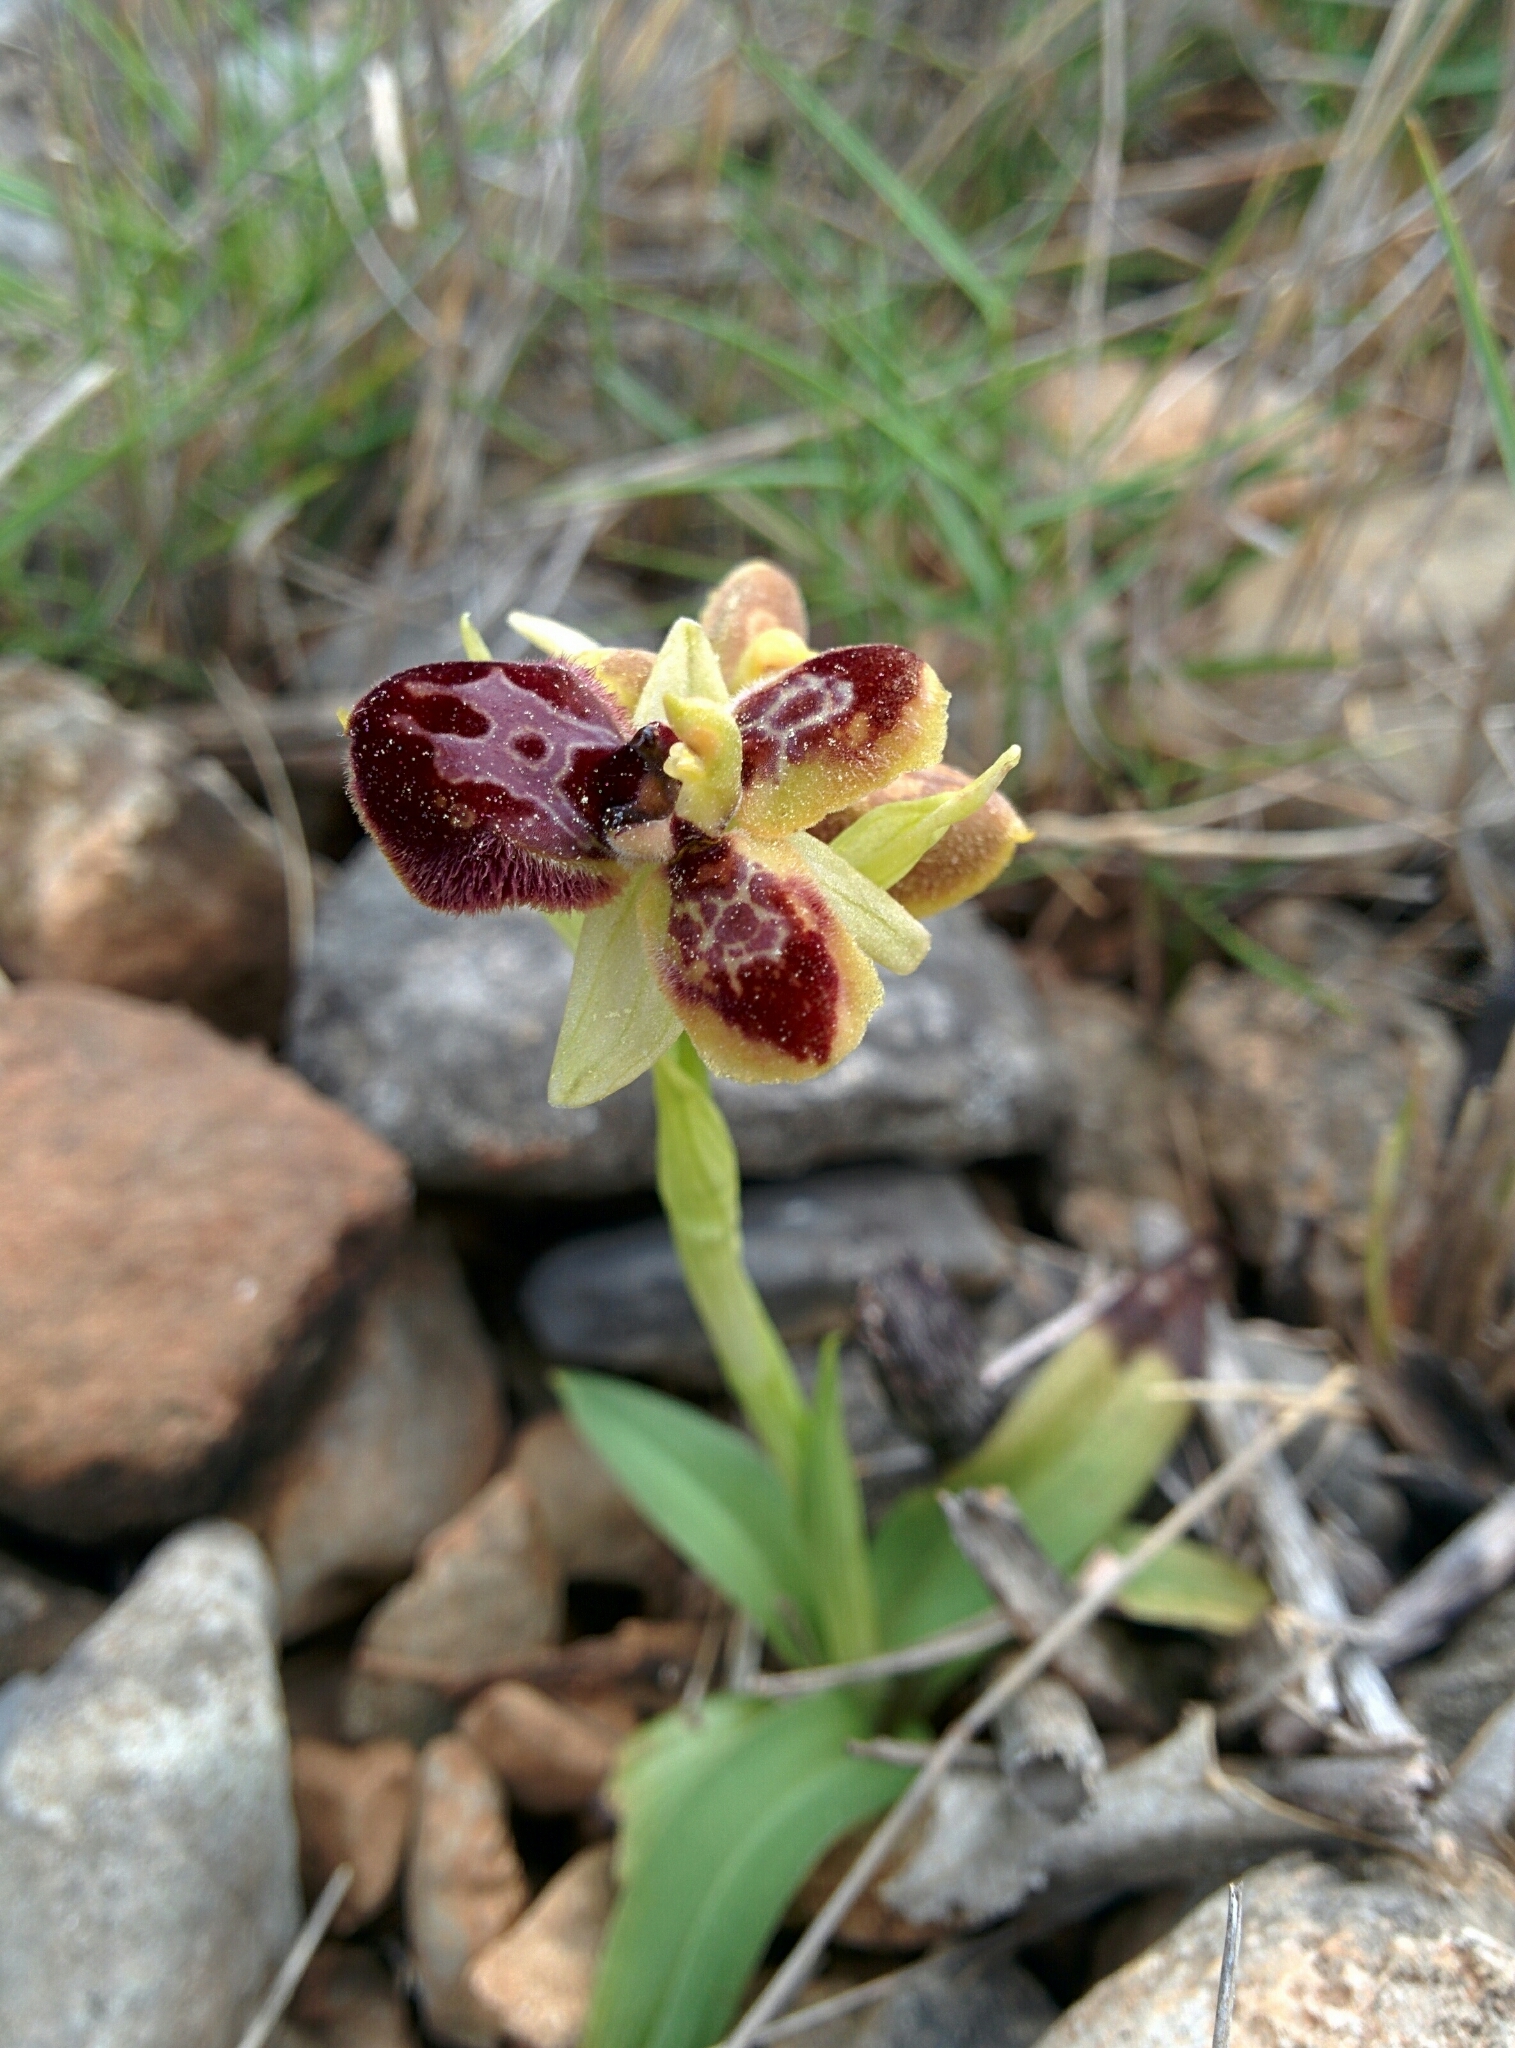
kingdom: Plantae
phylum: Tracheophyta
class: Liliopsida
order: Asparagales
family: Orchidaceae
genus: Ophrys
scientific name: Ophrys sphegodes
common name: Early spider-orchid
